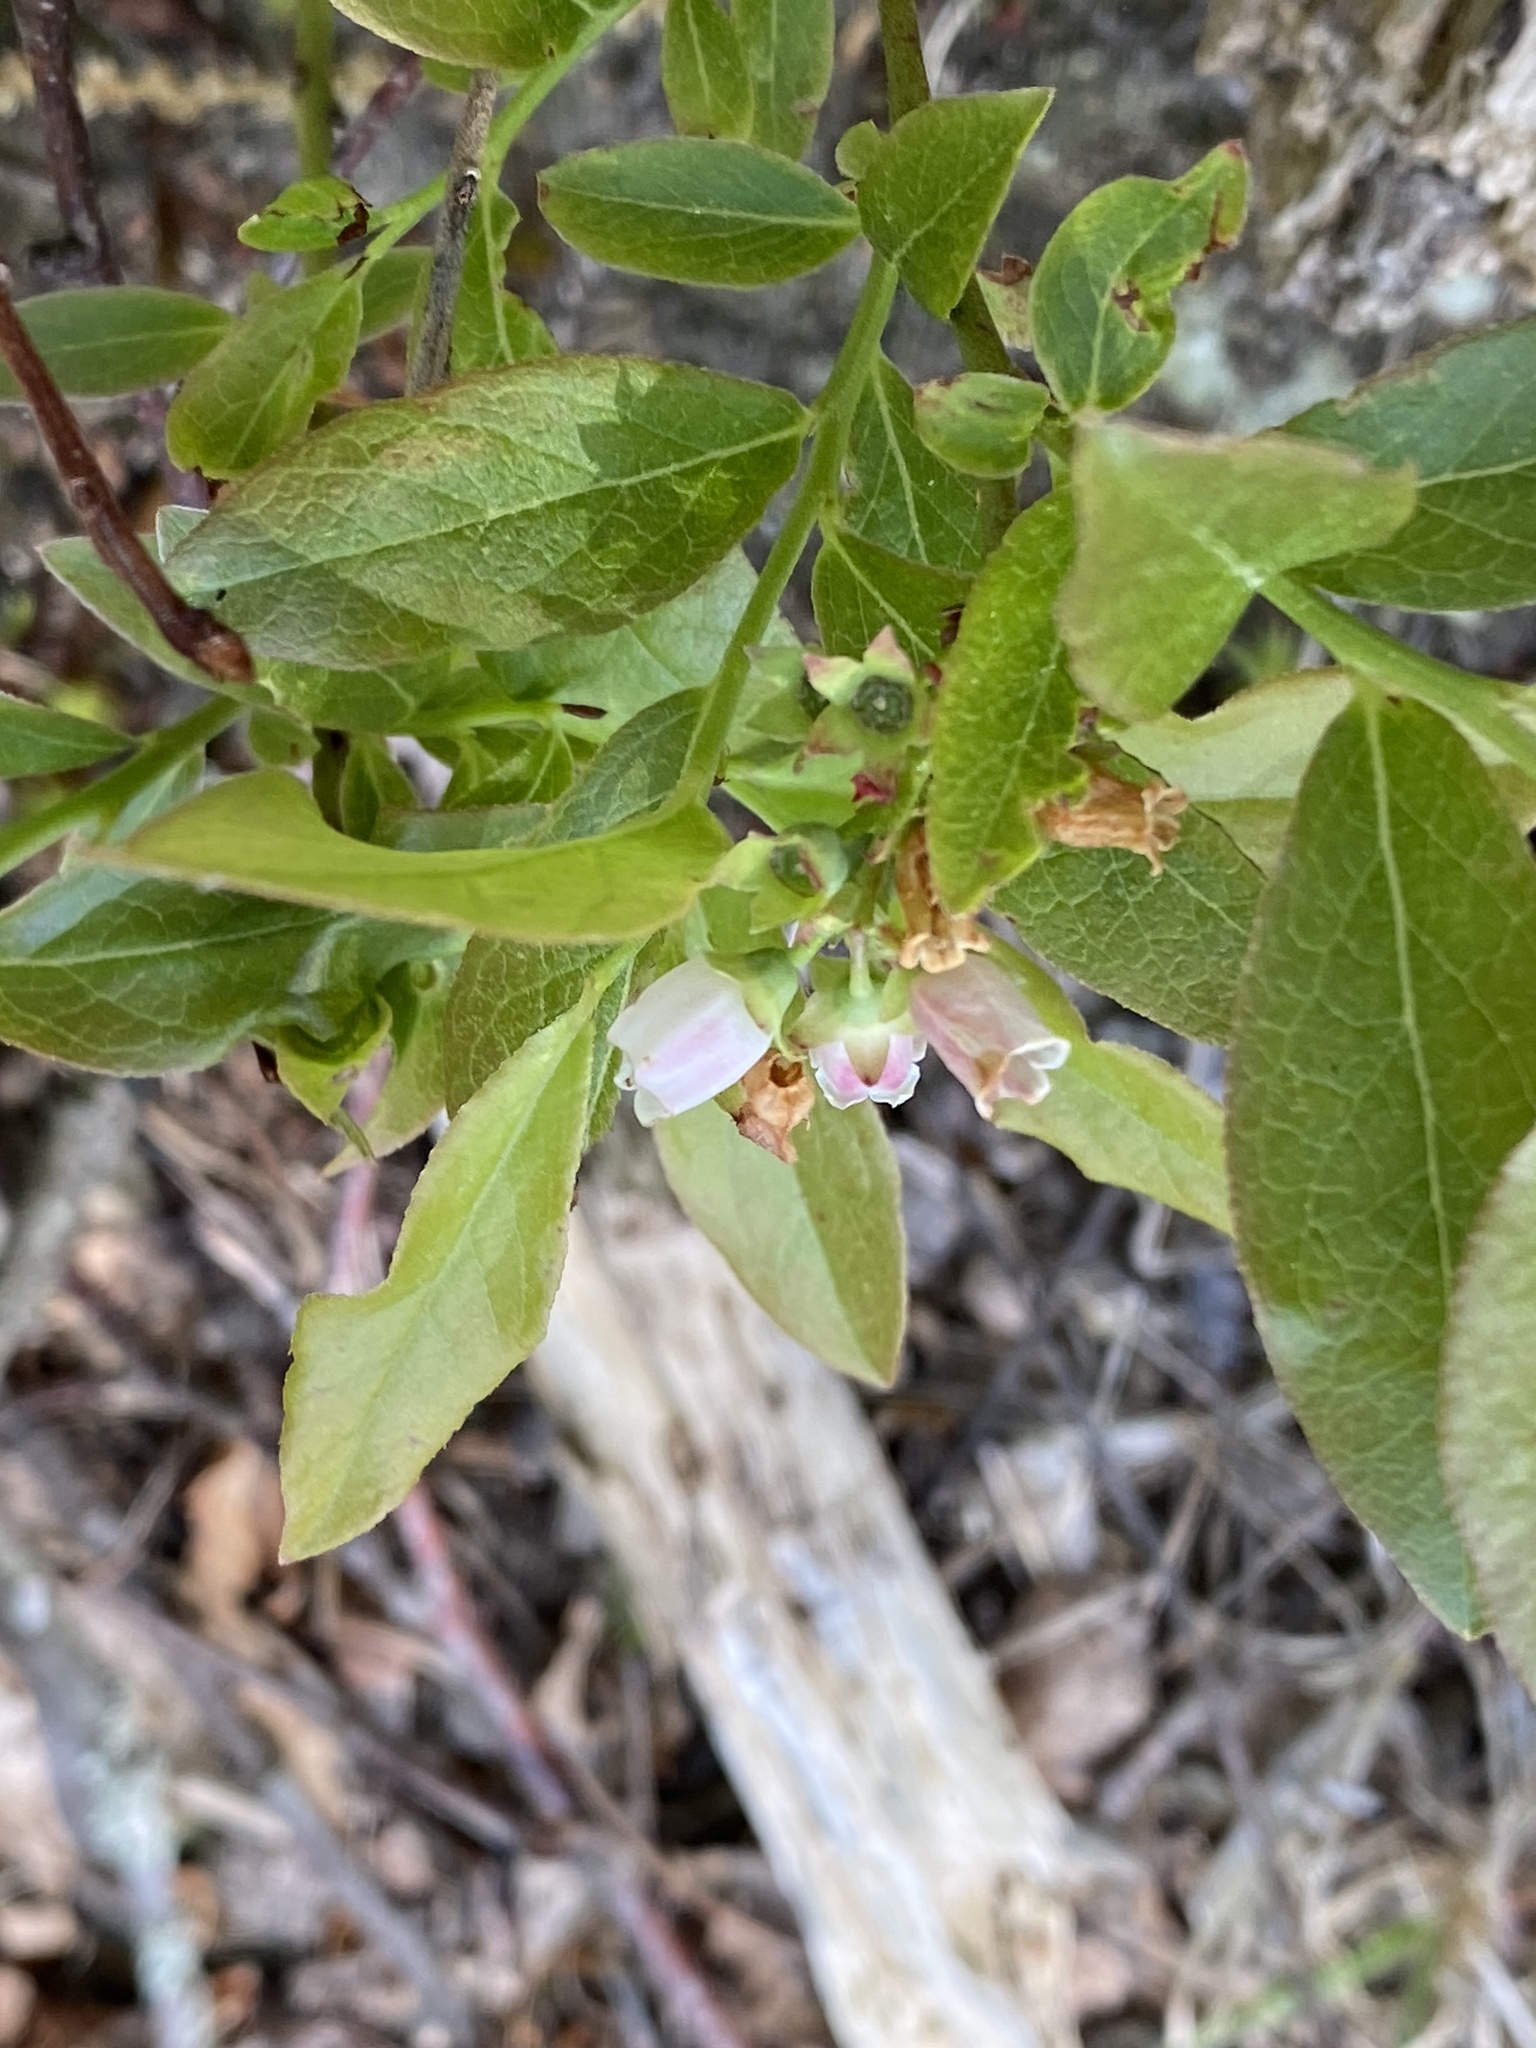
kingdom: Plantae
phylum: Tracheophyta
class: Magnoliopsida
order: Ericales
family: Ericaceae
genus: Vaccinium
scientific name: Vaccinium angustifolium
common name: Early lowbush blueberry
